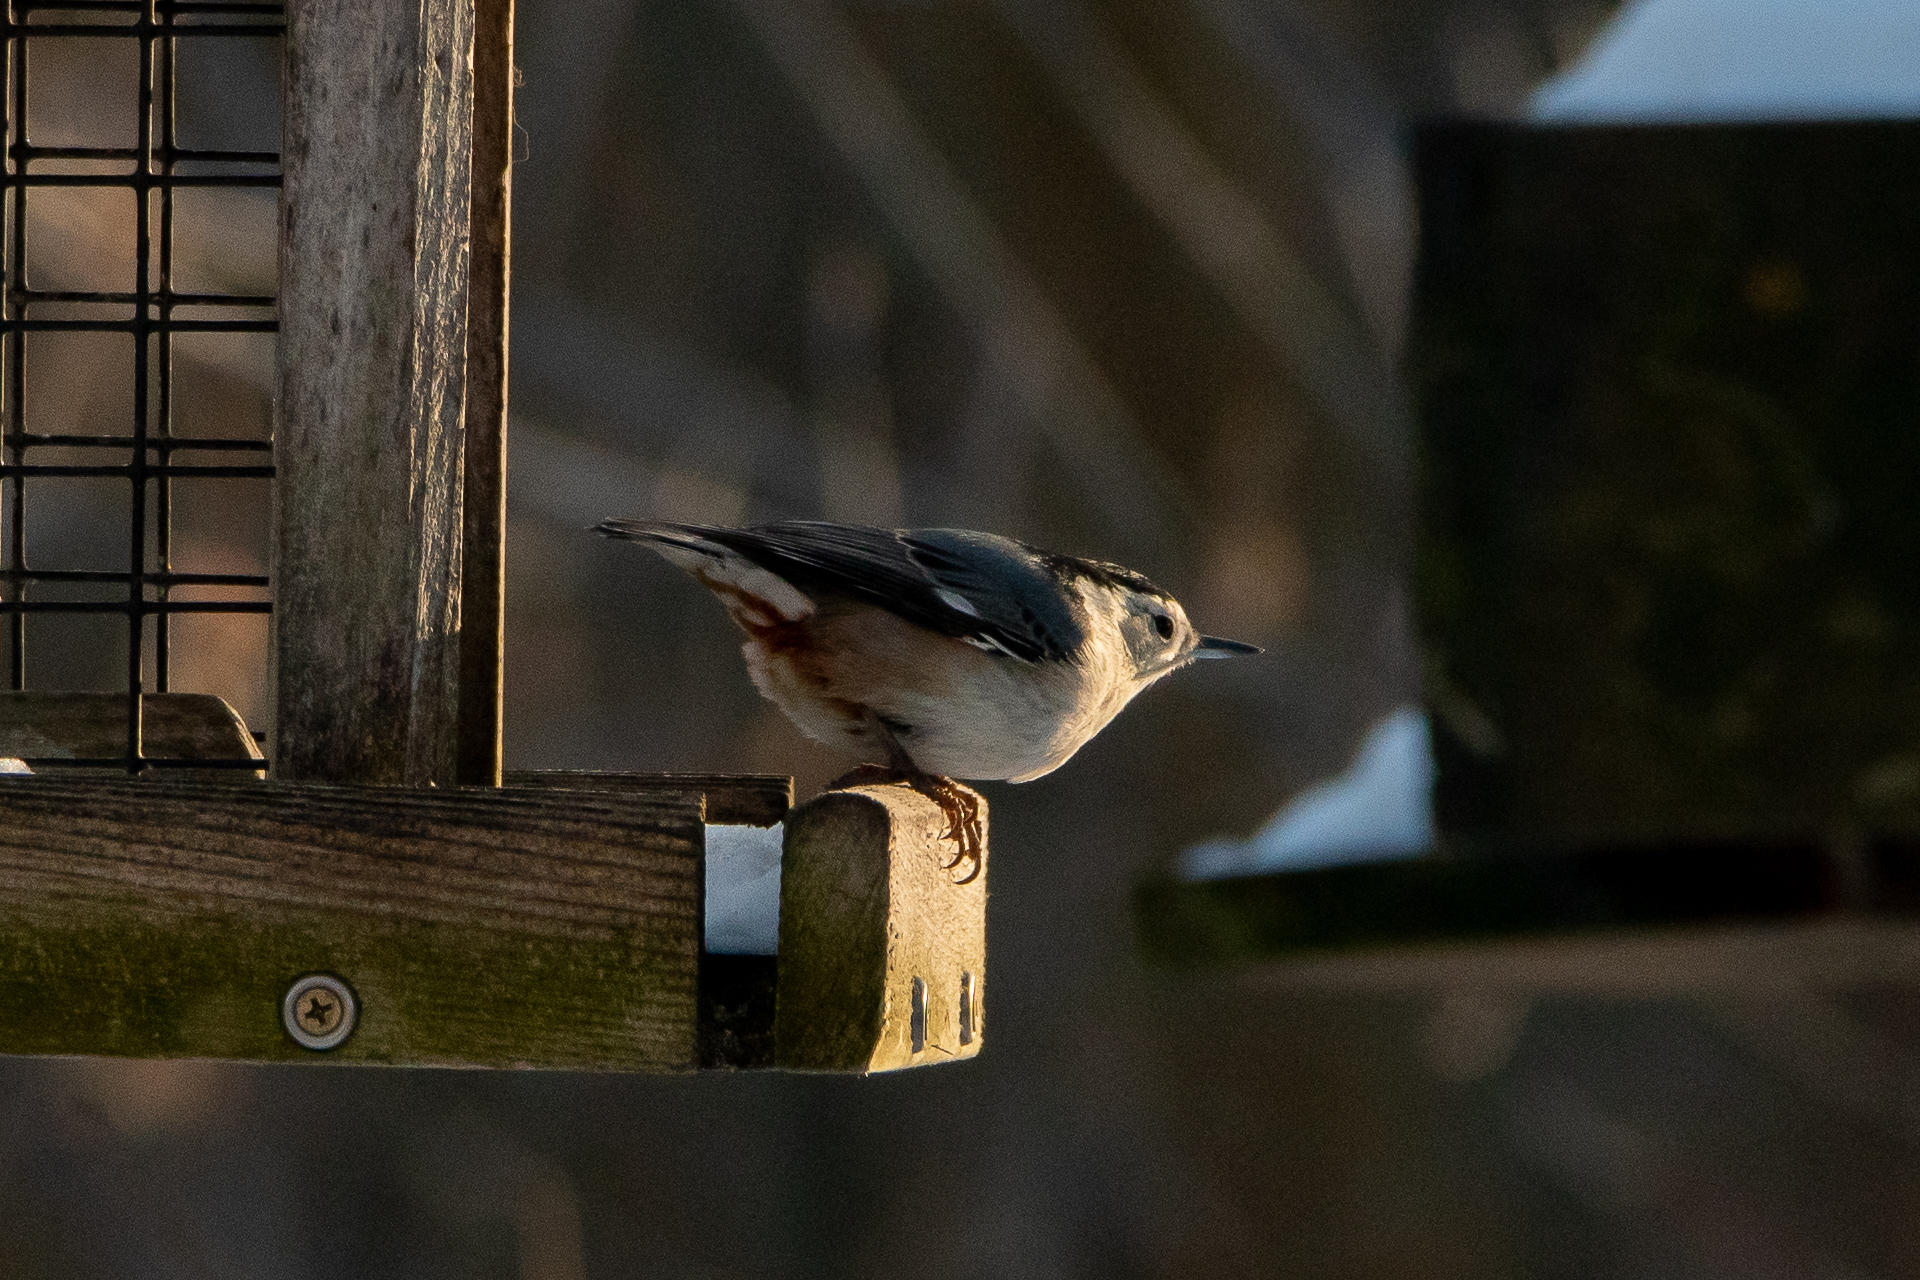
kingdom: Animalia
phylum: Chordata
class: Aves
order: Passeriformes
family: Sittidae
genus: Sitta
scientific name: Sitta carolinensis
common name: White-breasted nuthatch
